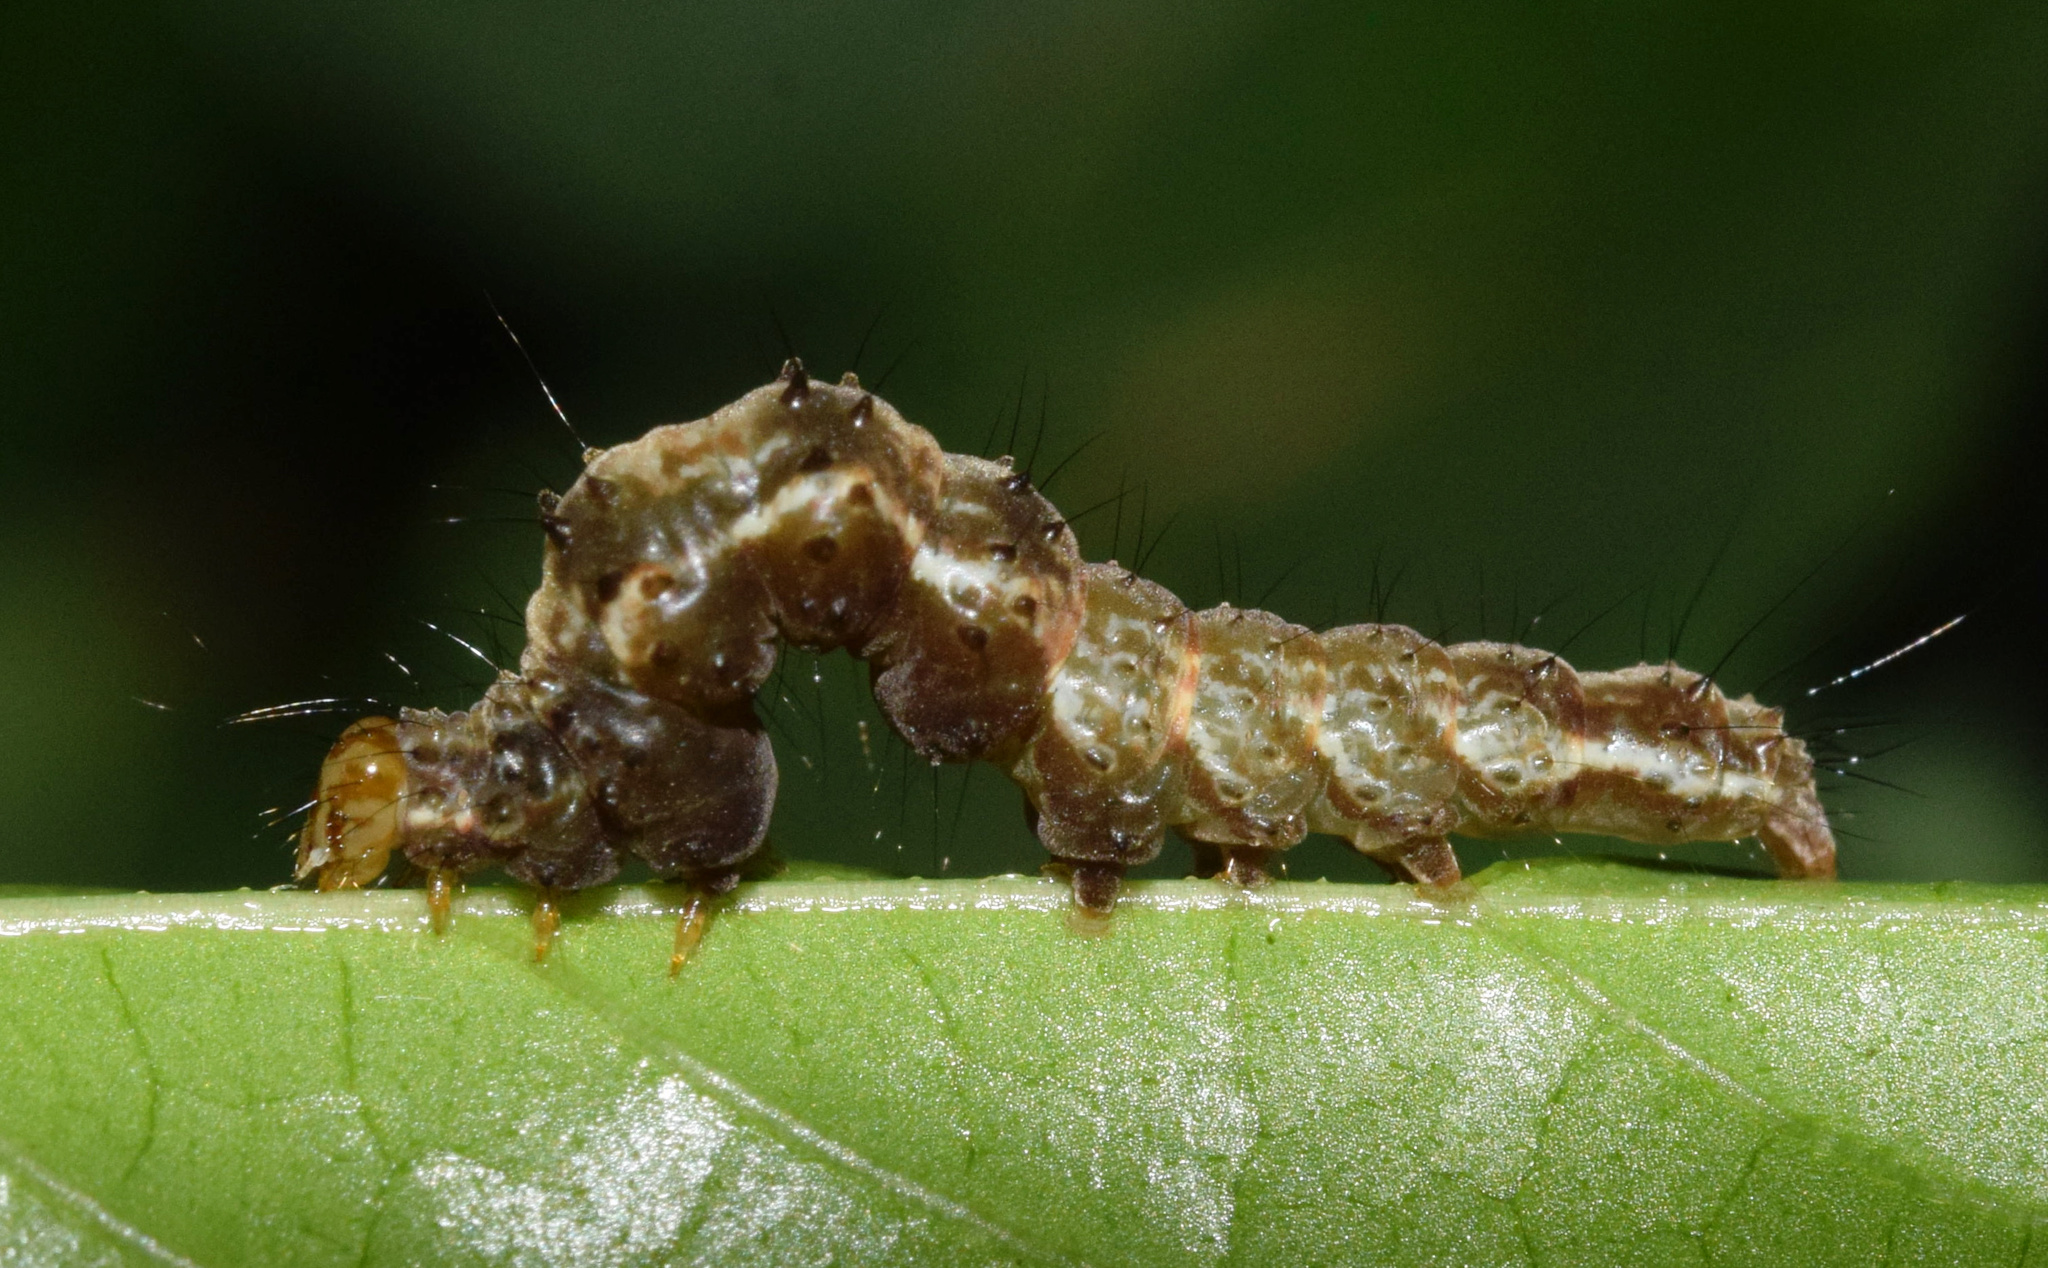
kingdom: Animalia
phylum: Arthropoda
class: Insecta
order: Lepidoptera
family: Erebidae
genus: Hypena
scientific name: Hypena palpitralis
